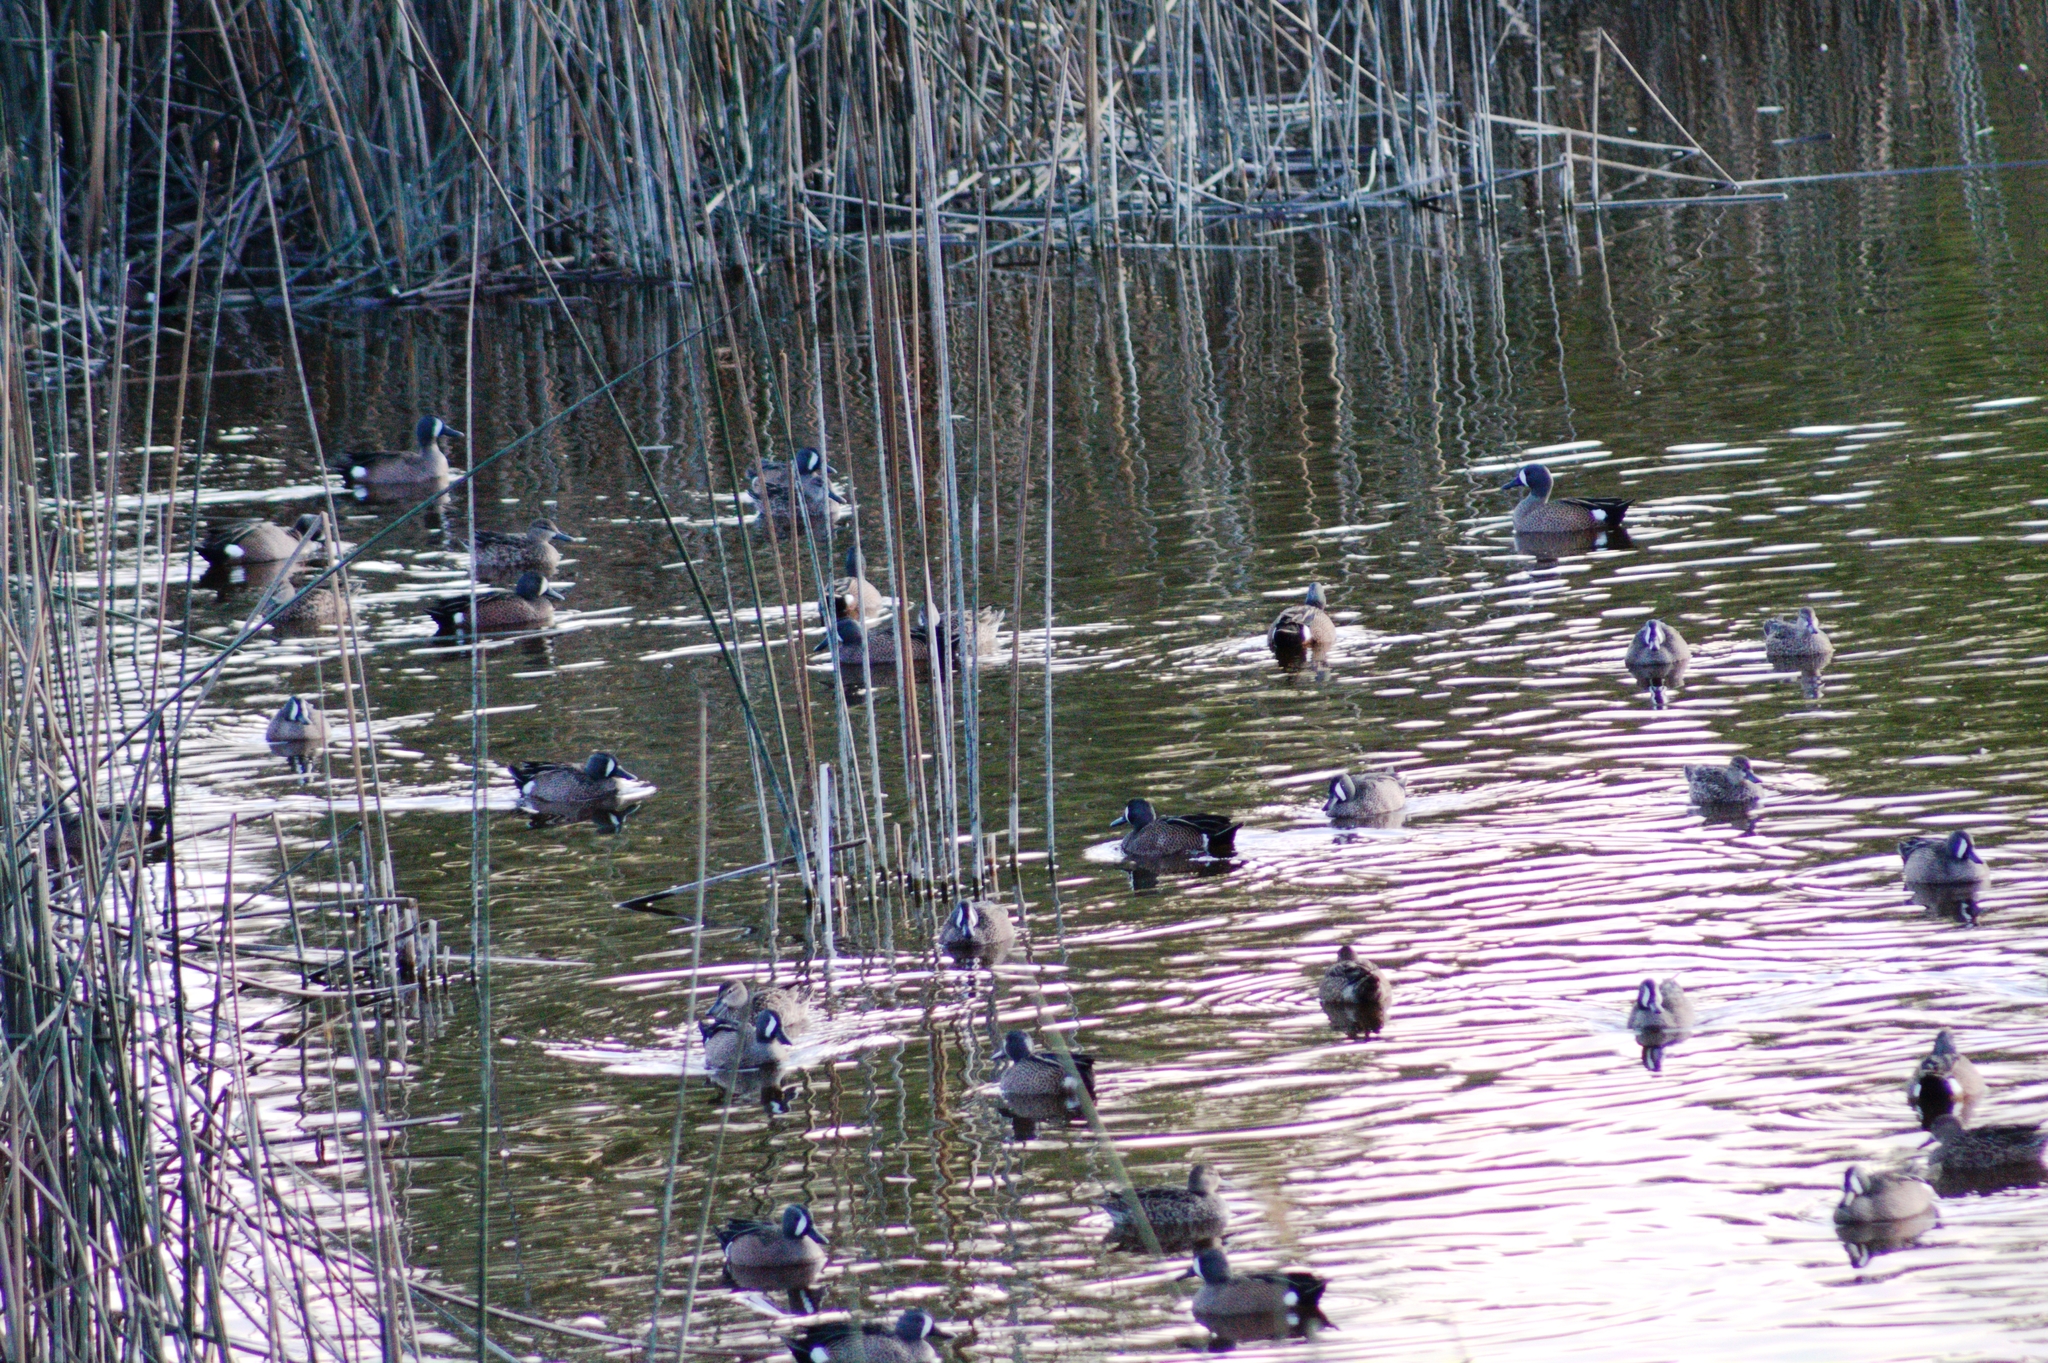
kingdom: Animalia
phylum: Chordata
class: Aves
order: Anseriformes
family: Anatidae
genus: Spatula
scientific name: Spatula discors
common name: Blue-winged teal
